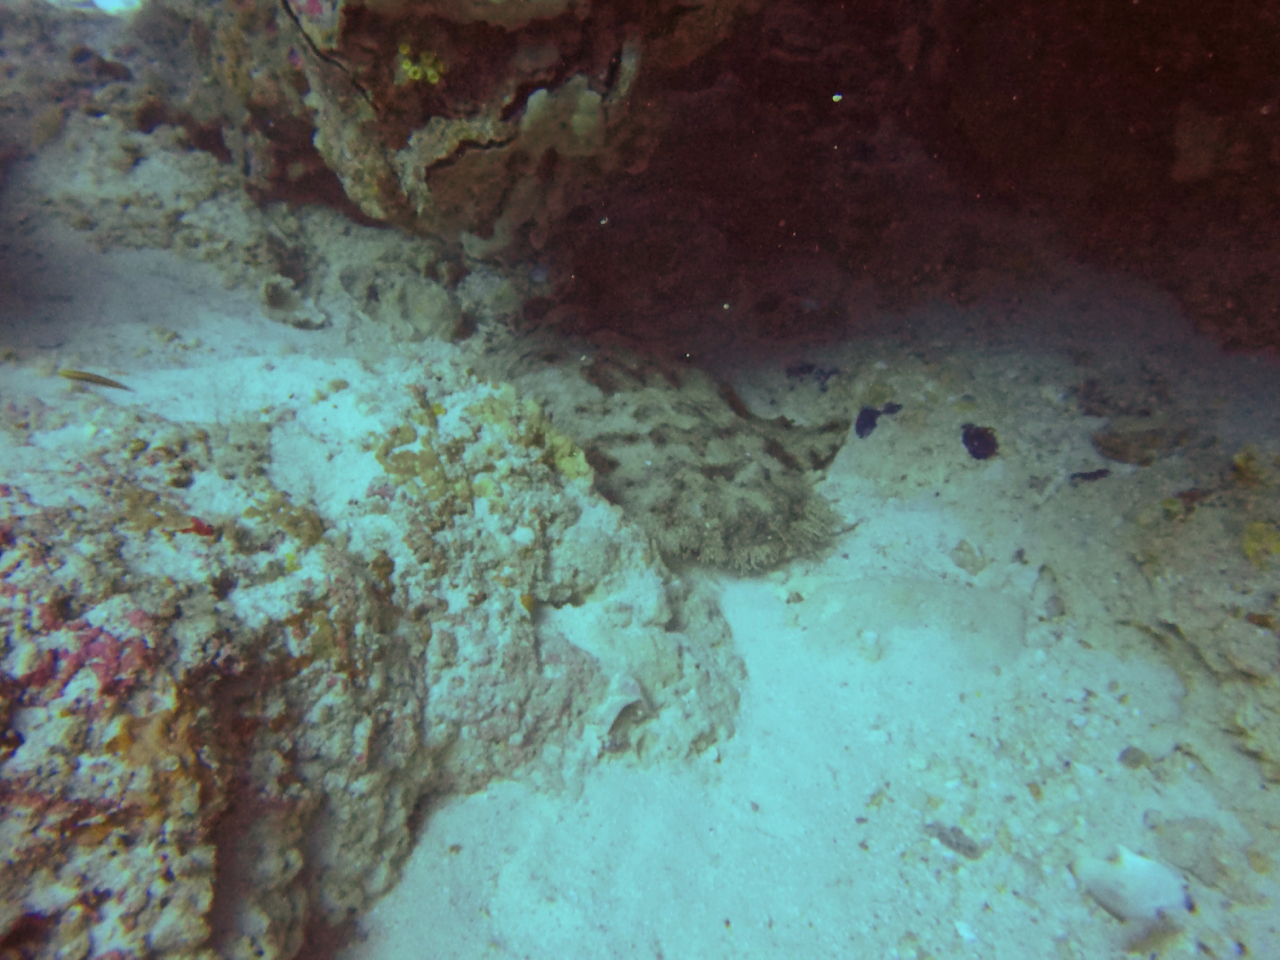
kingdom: Animalia
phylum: Chordata
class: Elasmobranchii
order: Orectolobiformes
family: Orectolobidae
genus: Eucrossorhinus
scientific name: Eucrossorhinus dasypogon
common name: Tasselled wobbegong
